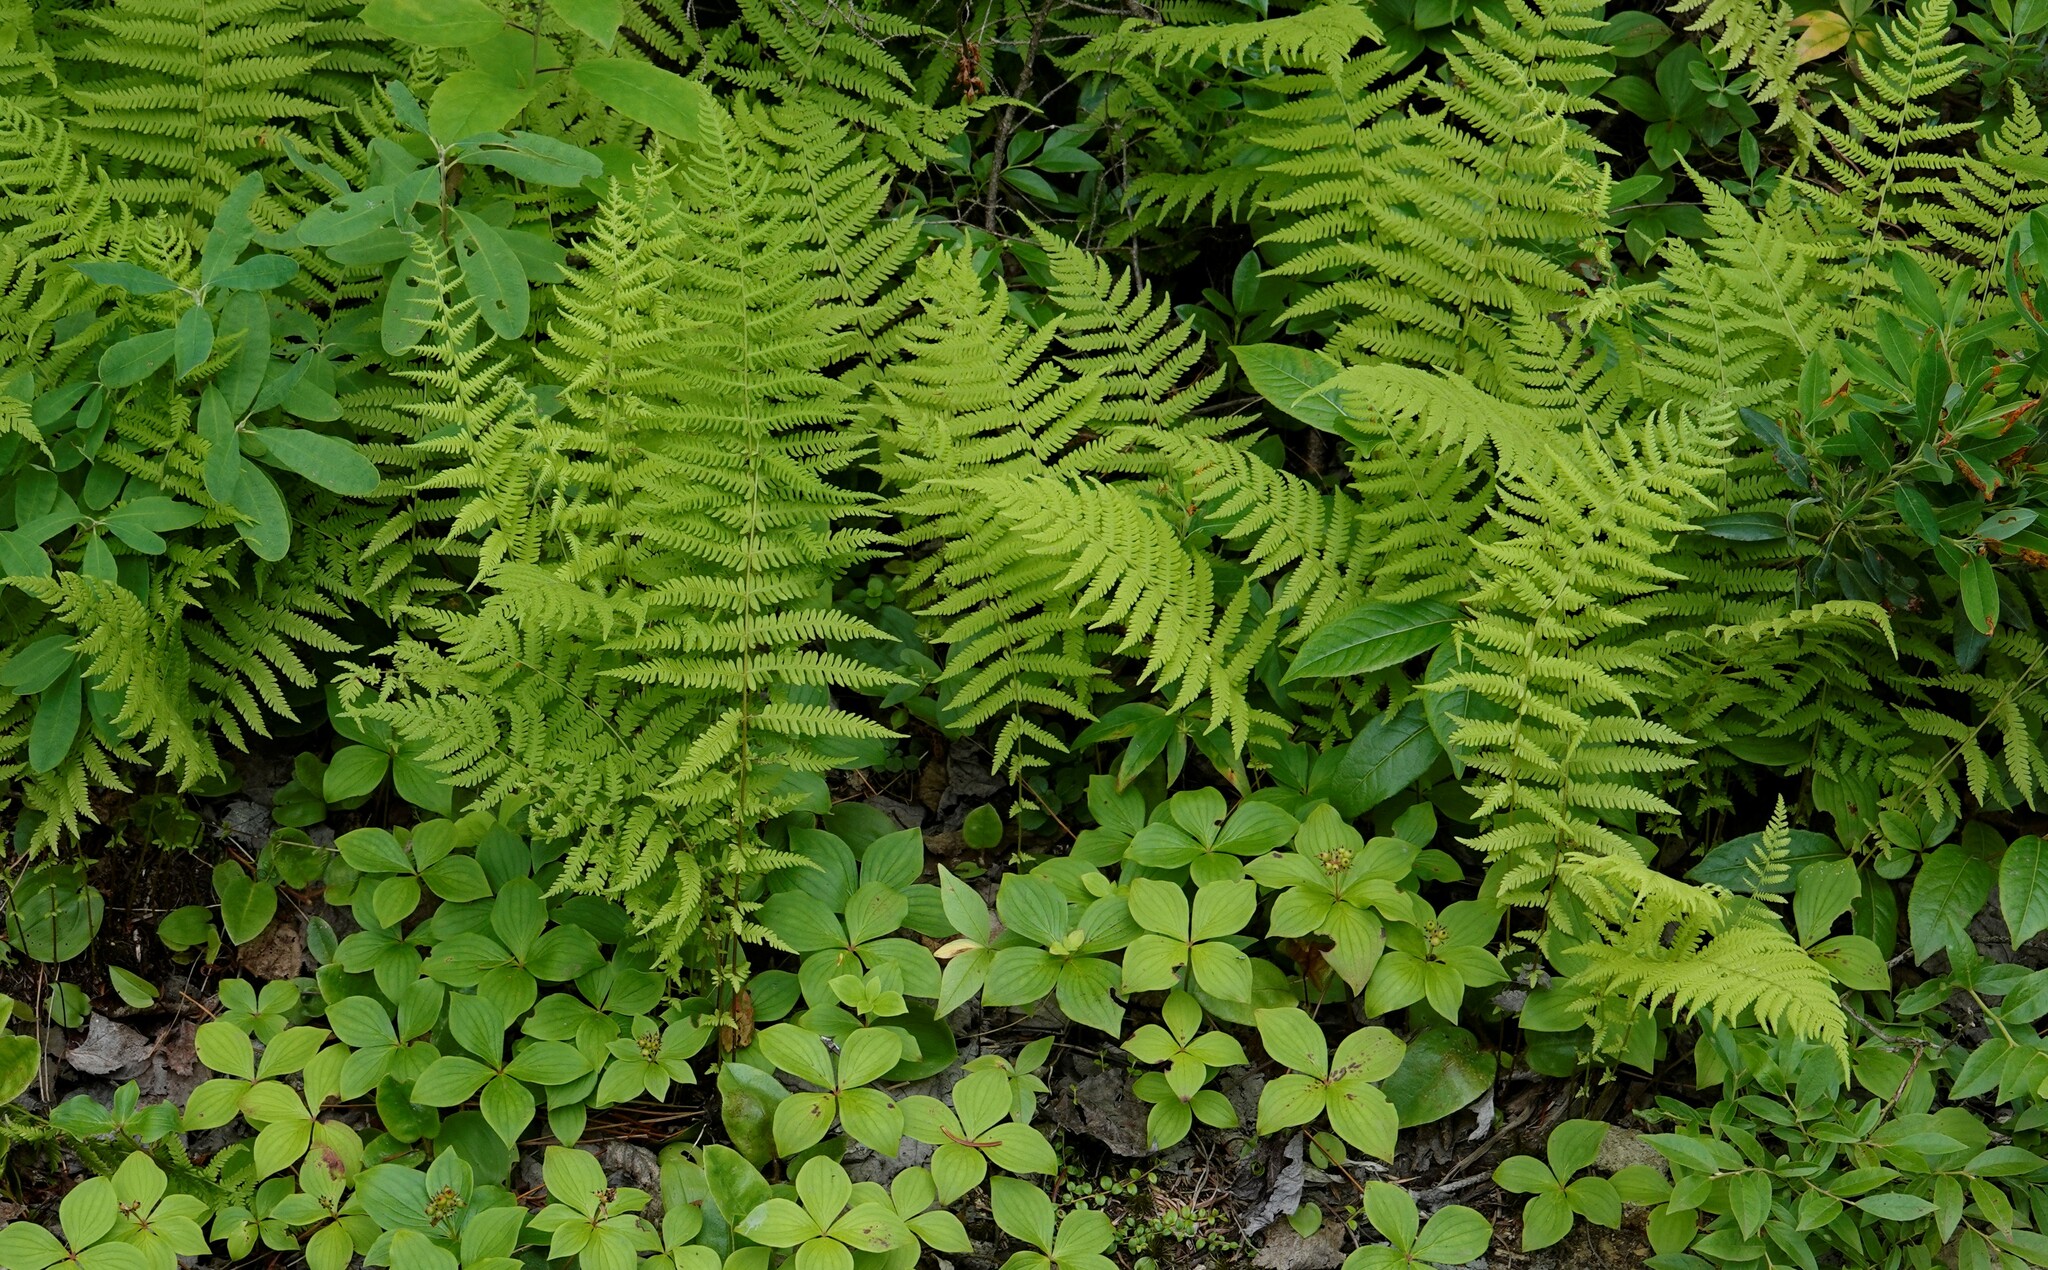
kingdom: Plantae
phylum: Tracheophyta
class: Polypodiopsida
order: Polypodiales
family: Thelypteridaceae
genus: Amauropelta
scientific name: Amauropelta noveboracensis
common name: New york fern
